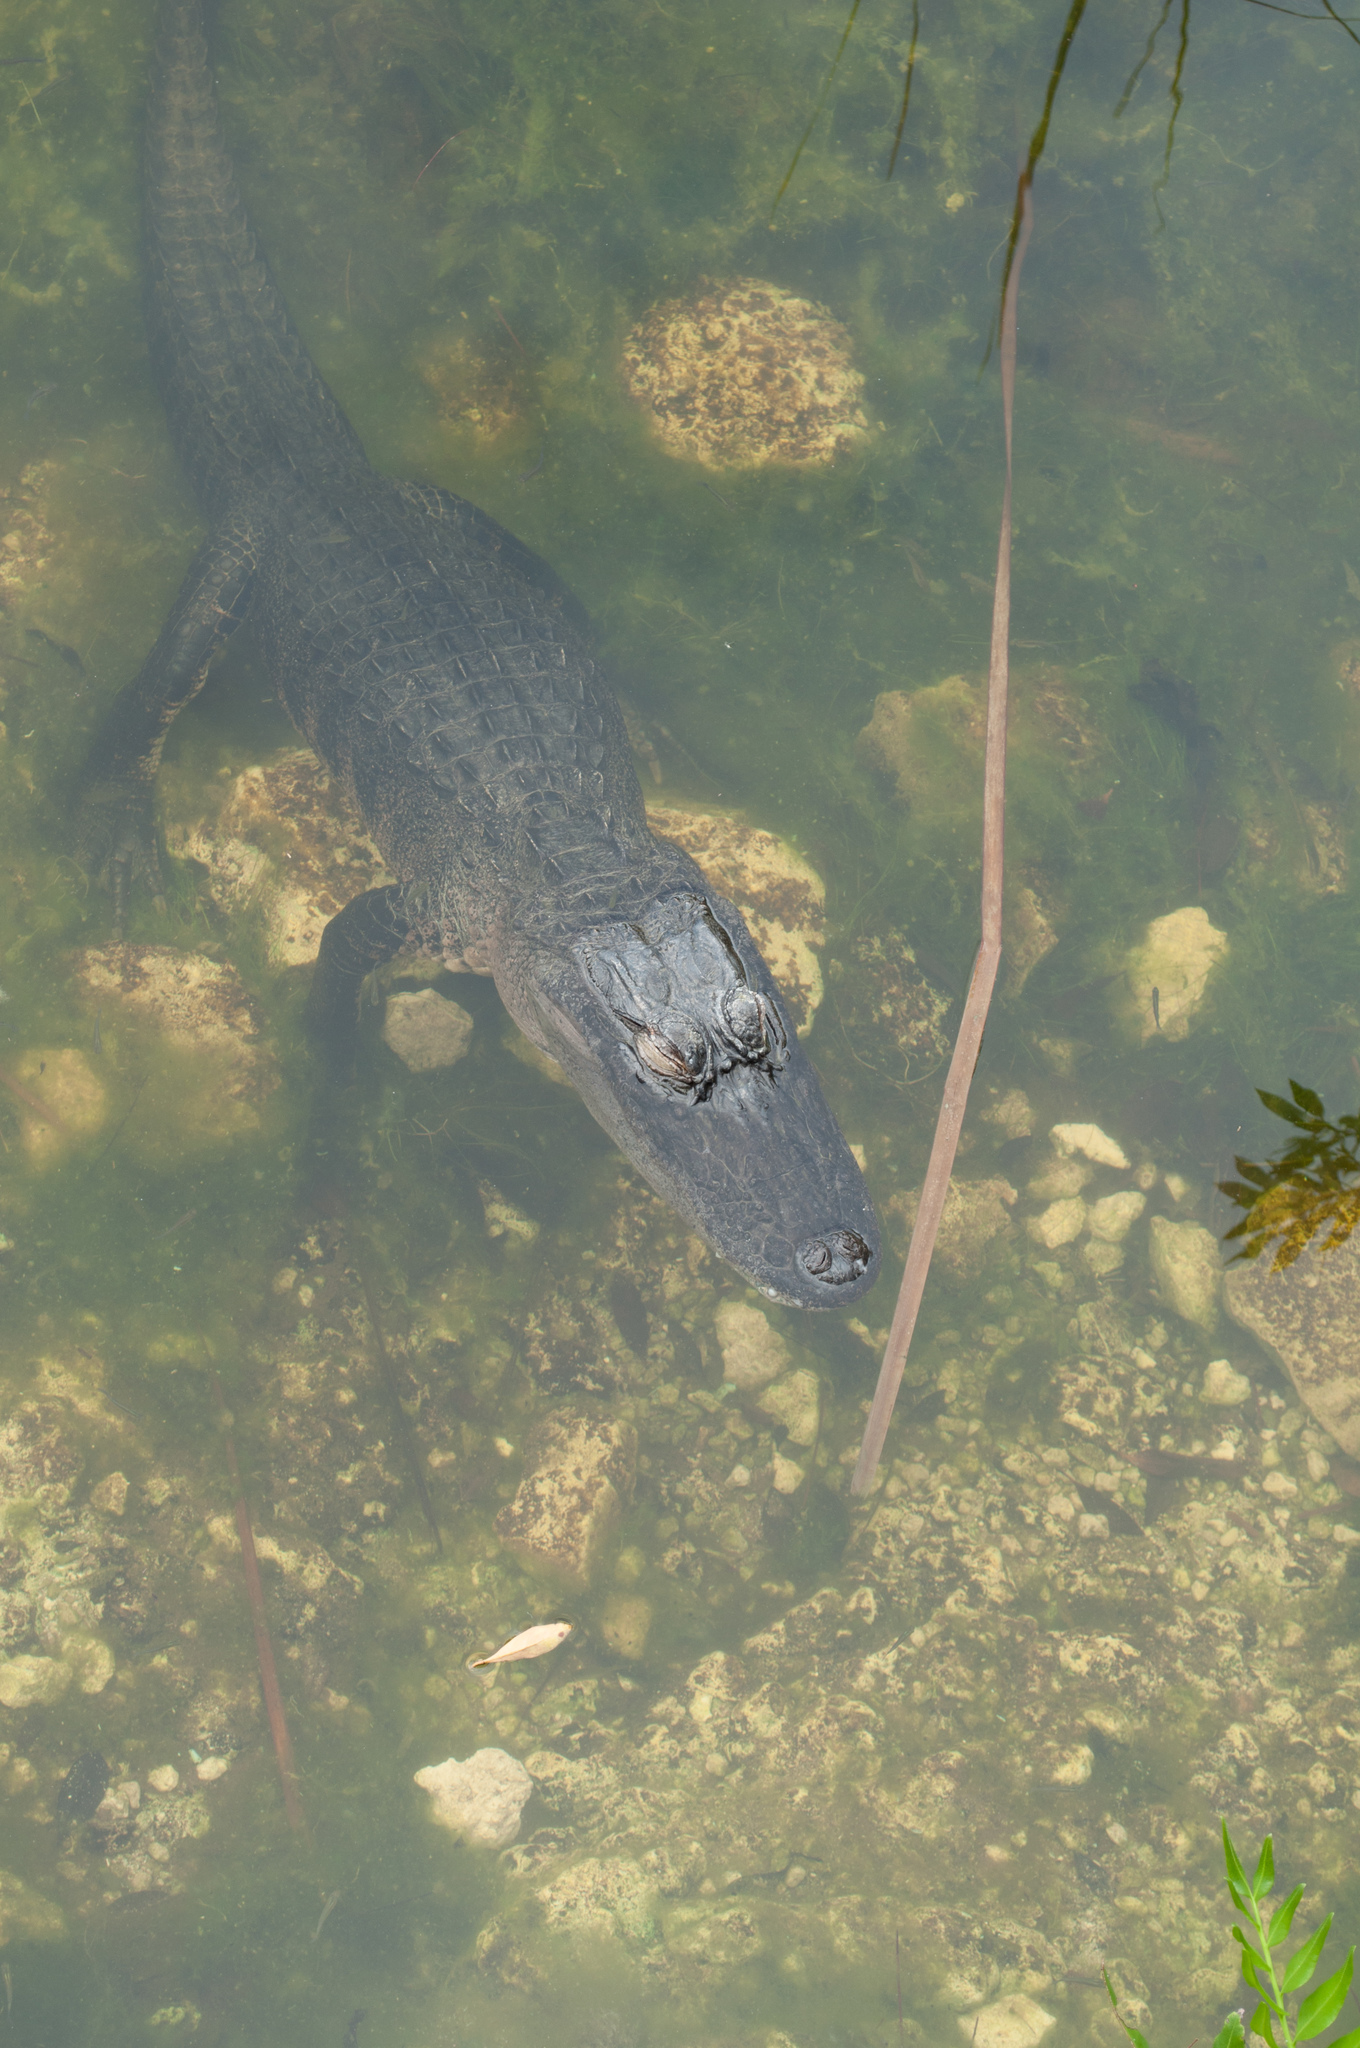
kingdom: Animalia
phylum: Chordata
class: Crocodylia
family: Alligatoridae
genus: Alligator
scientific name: Alligator mississippiensis
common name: American alligator
